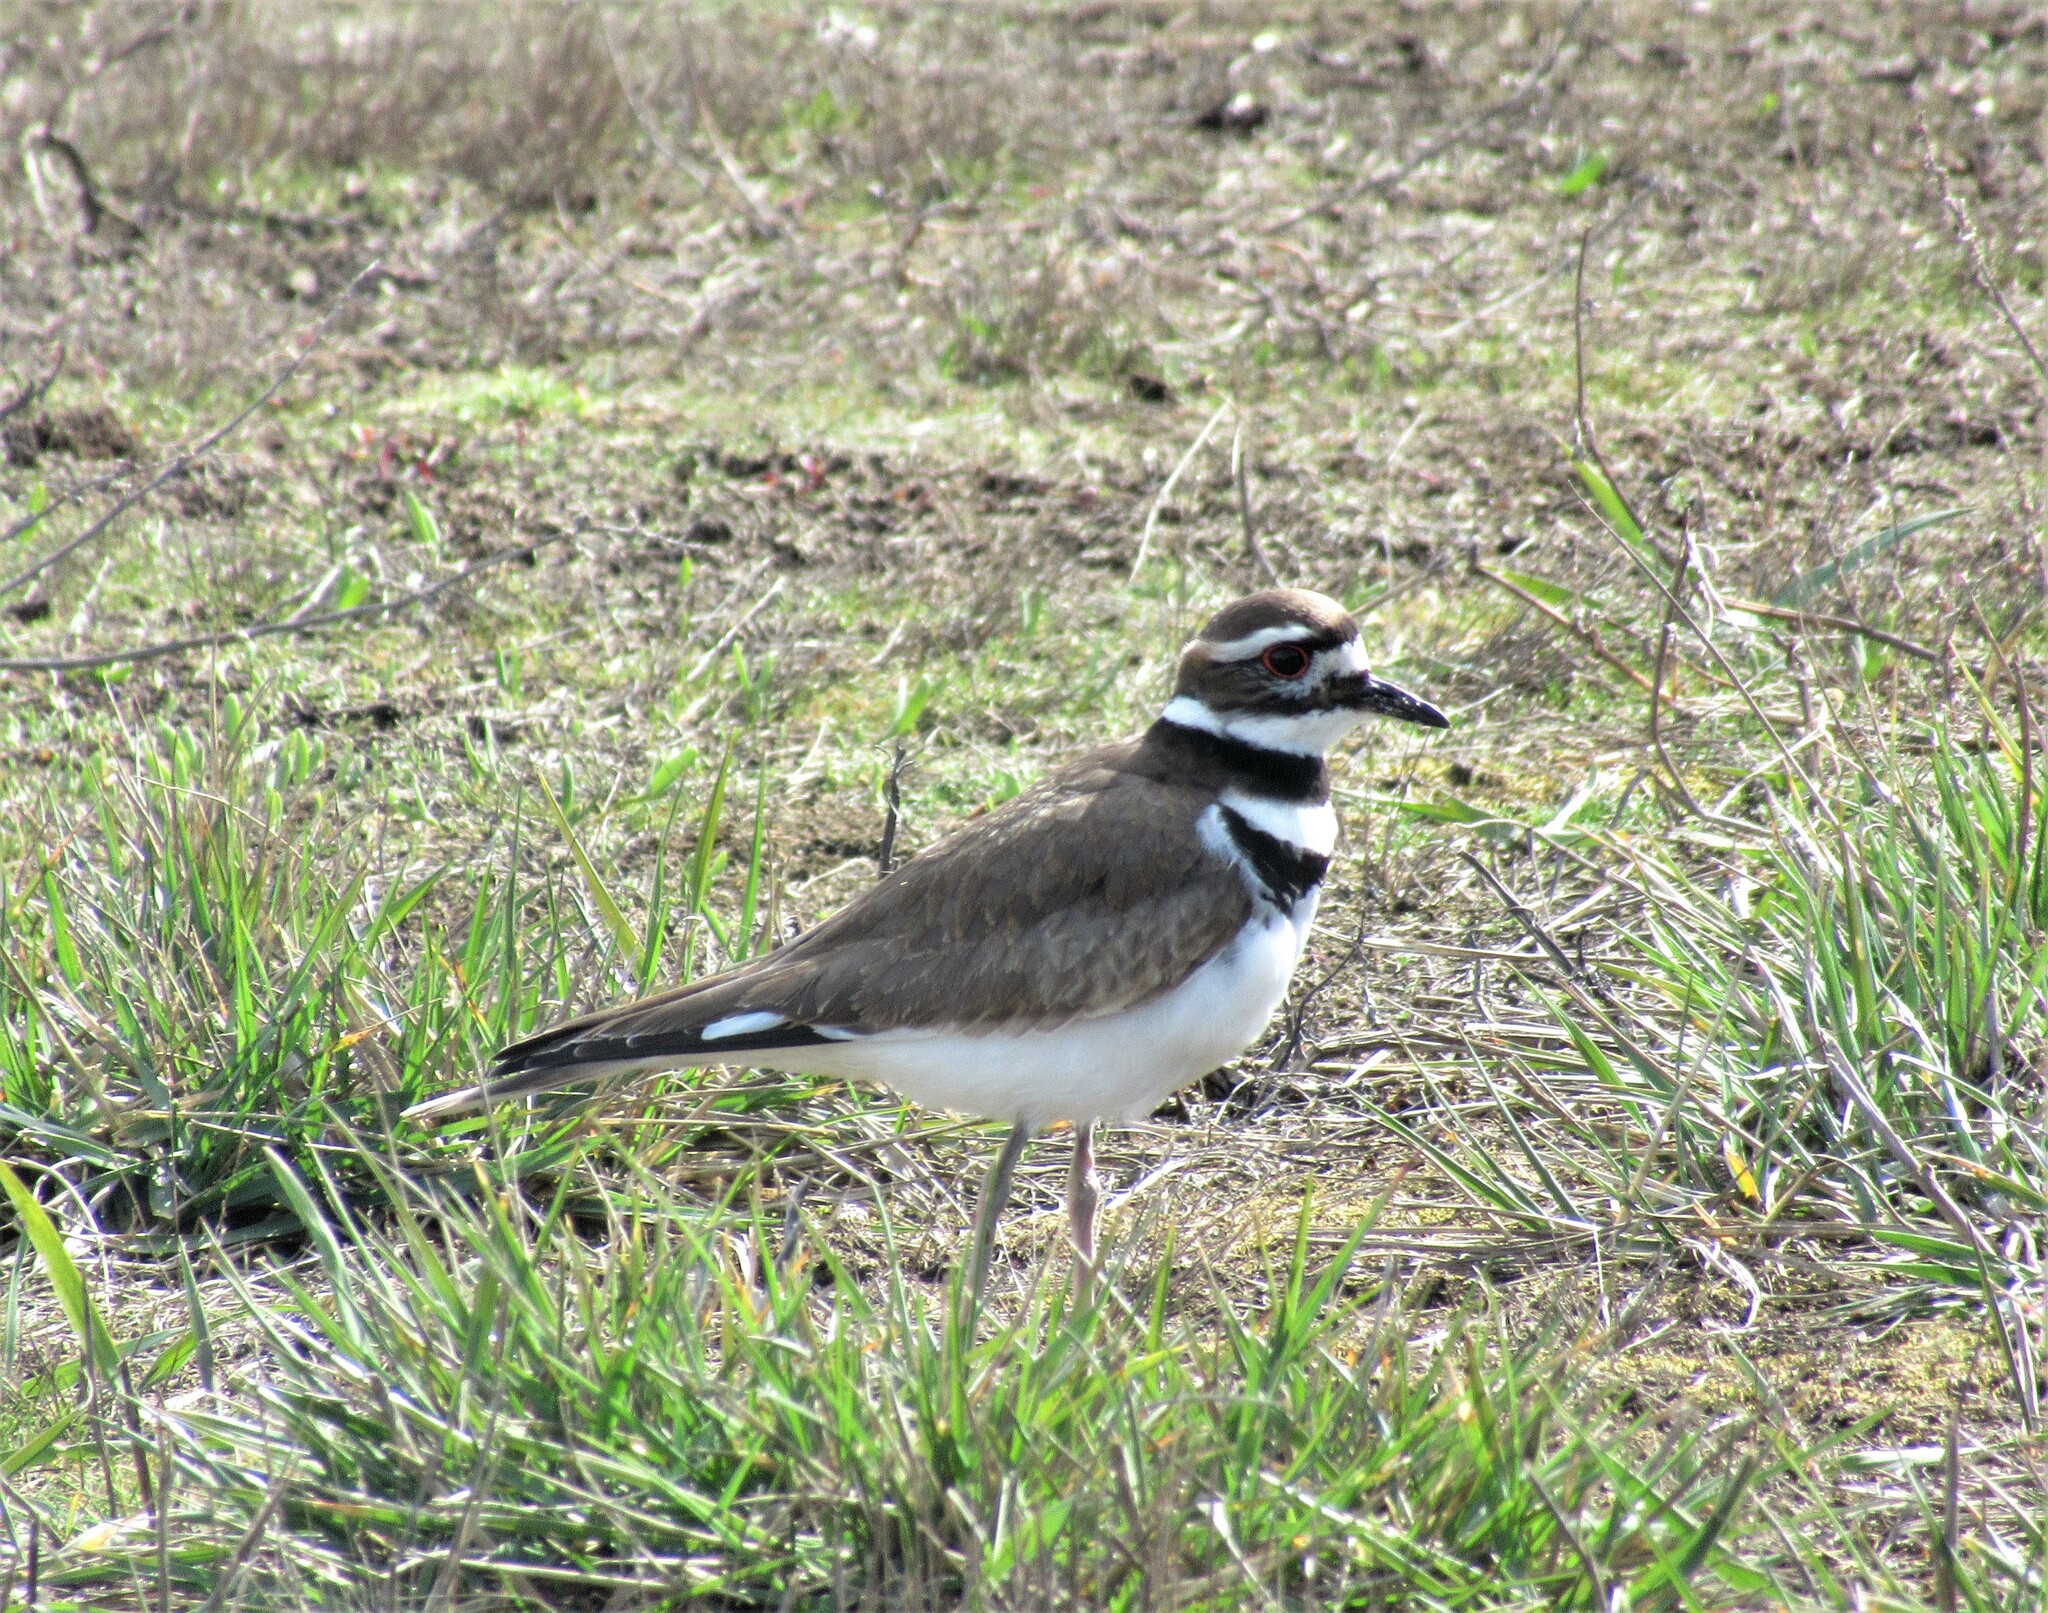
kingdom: Animalia
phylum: Chordata
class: Aves
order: Charadriiformes
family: Charadriidae
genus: Charadrius
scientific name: Charadrius vociferus
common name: Killdeer
